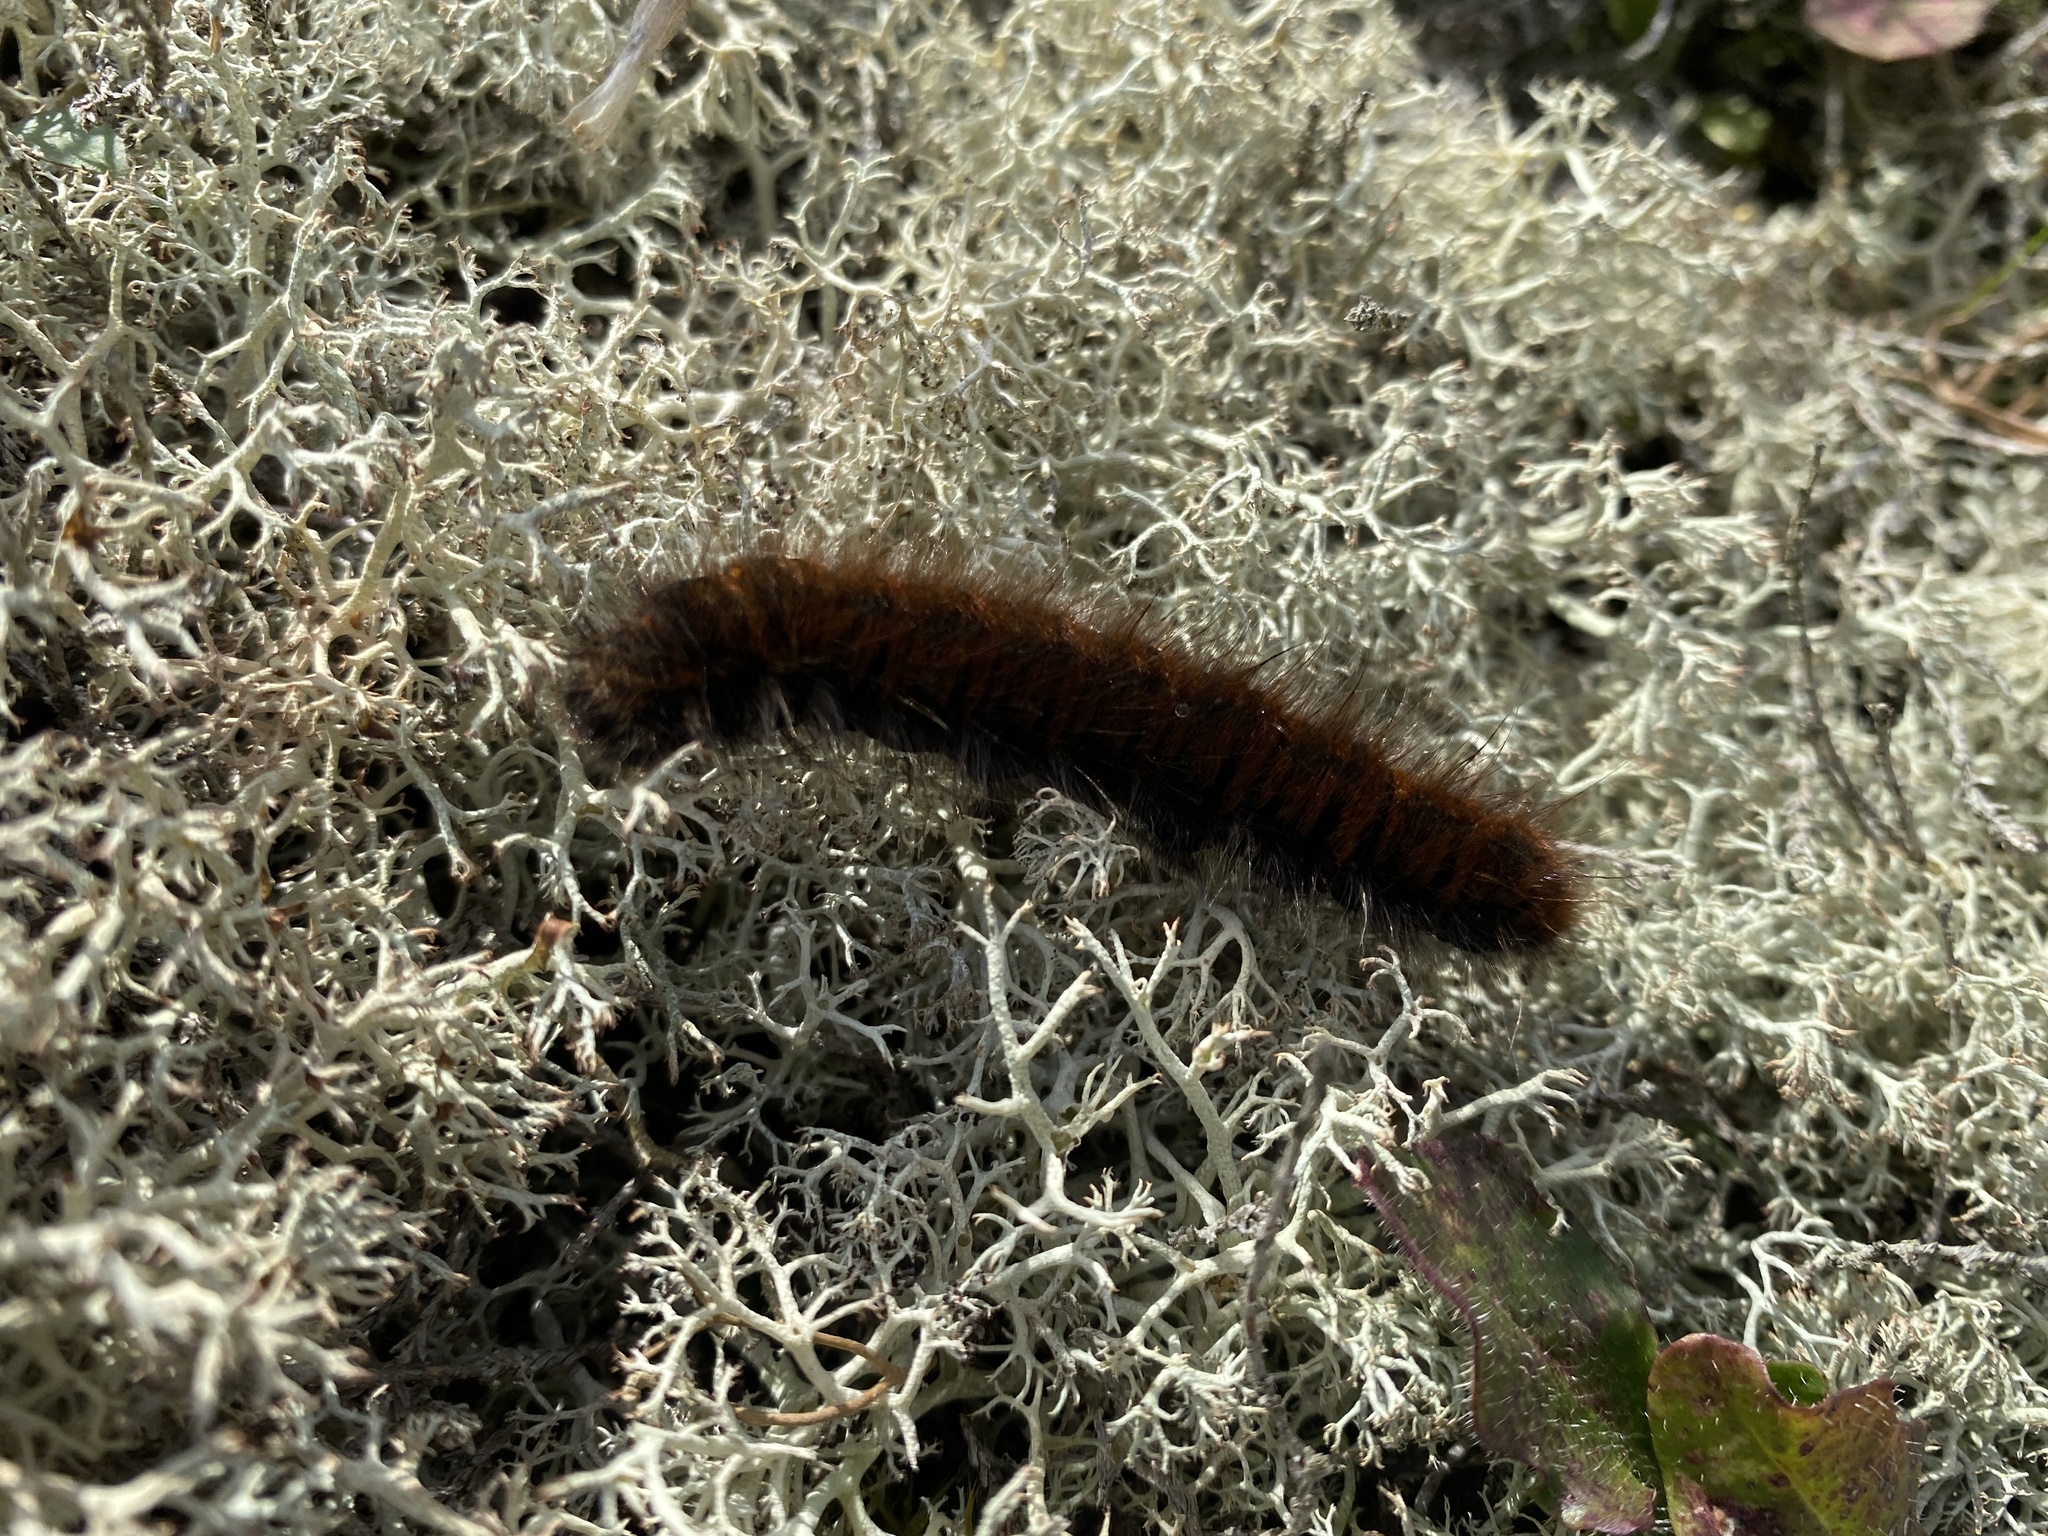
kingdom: Animalia
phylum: Arthropoda
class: Insecta
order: Lepidoptera
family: Lasiocampidae
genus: Macrothylacia
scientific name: Macrothylacia rubi
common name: Fox moth
